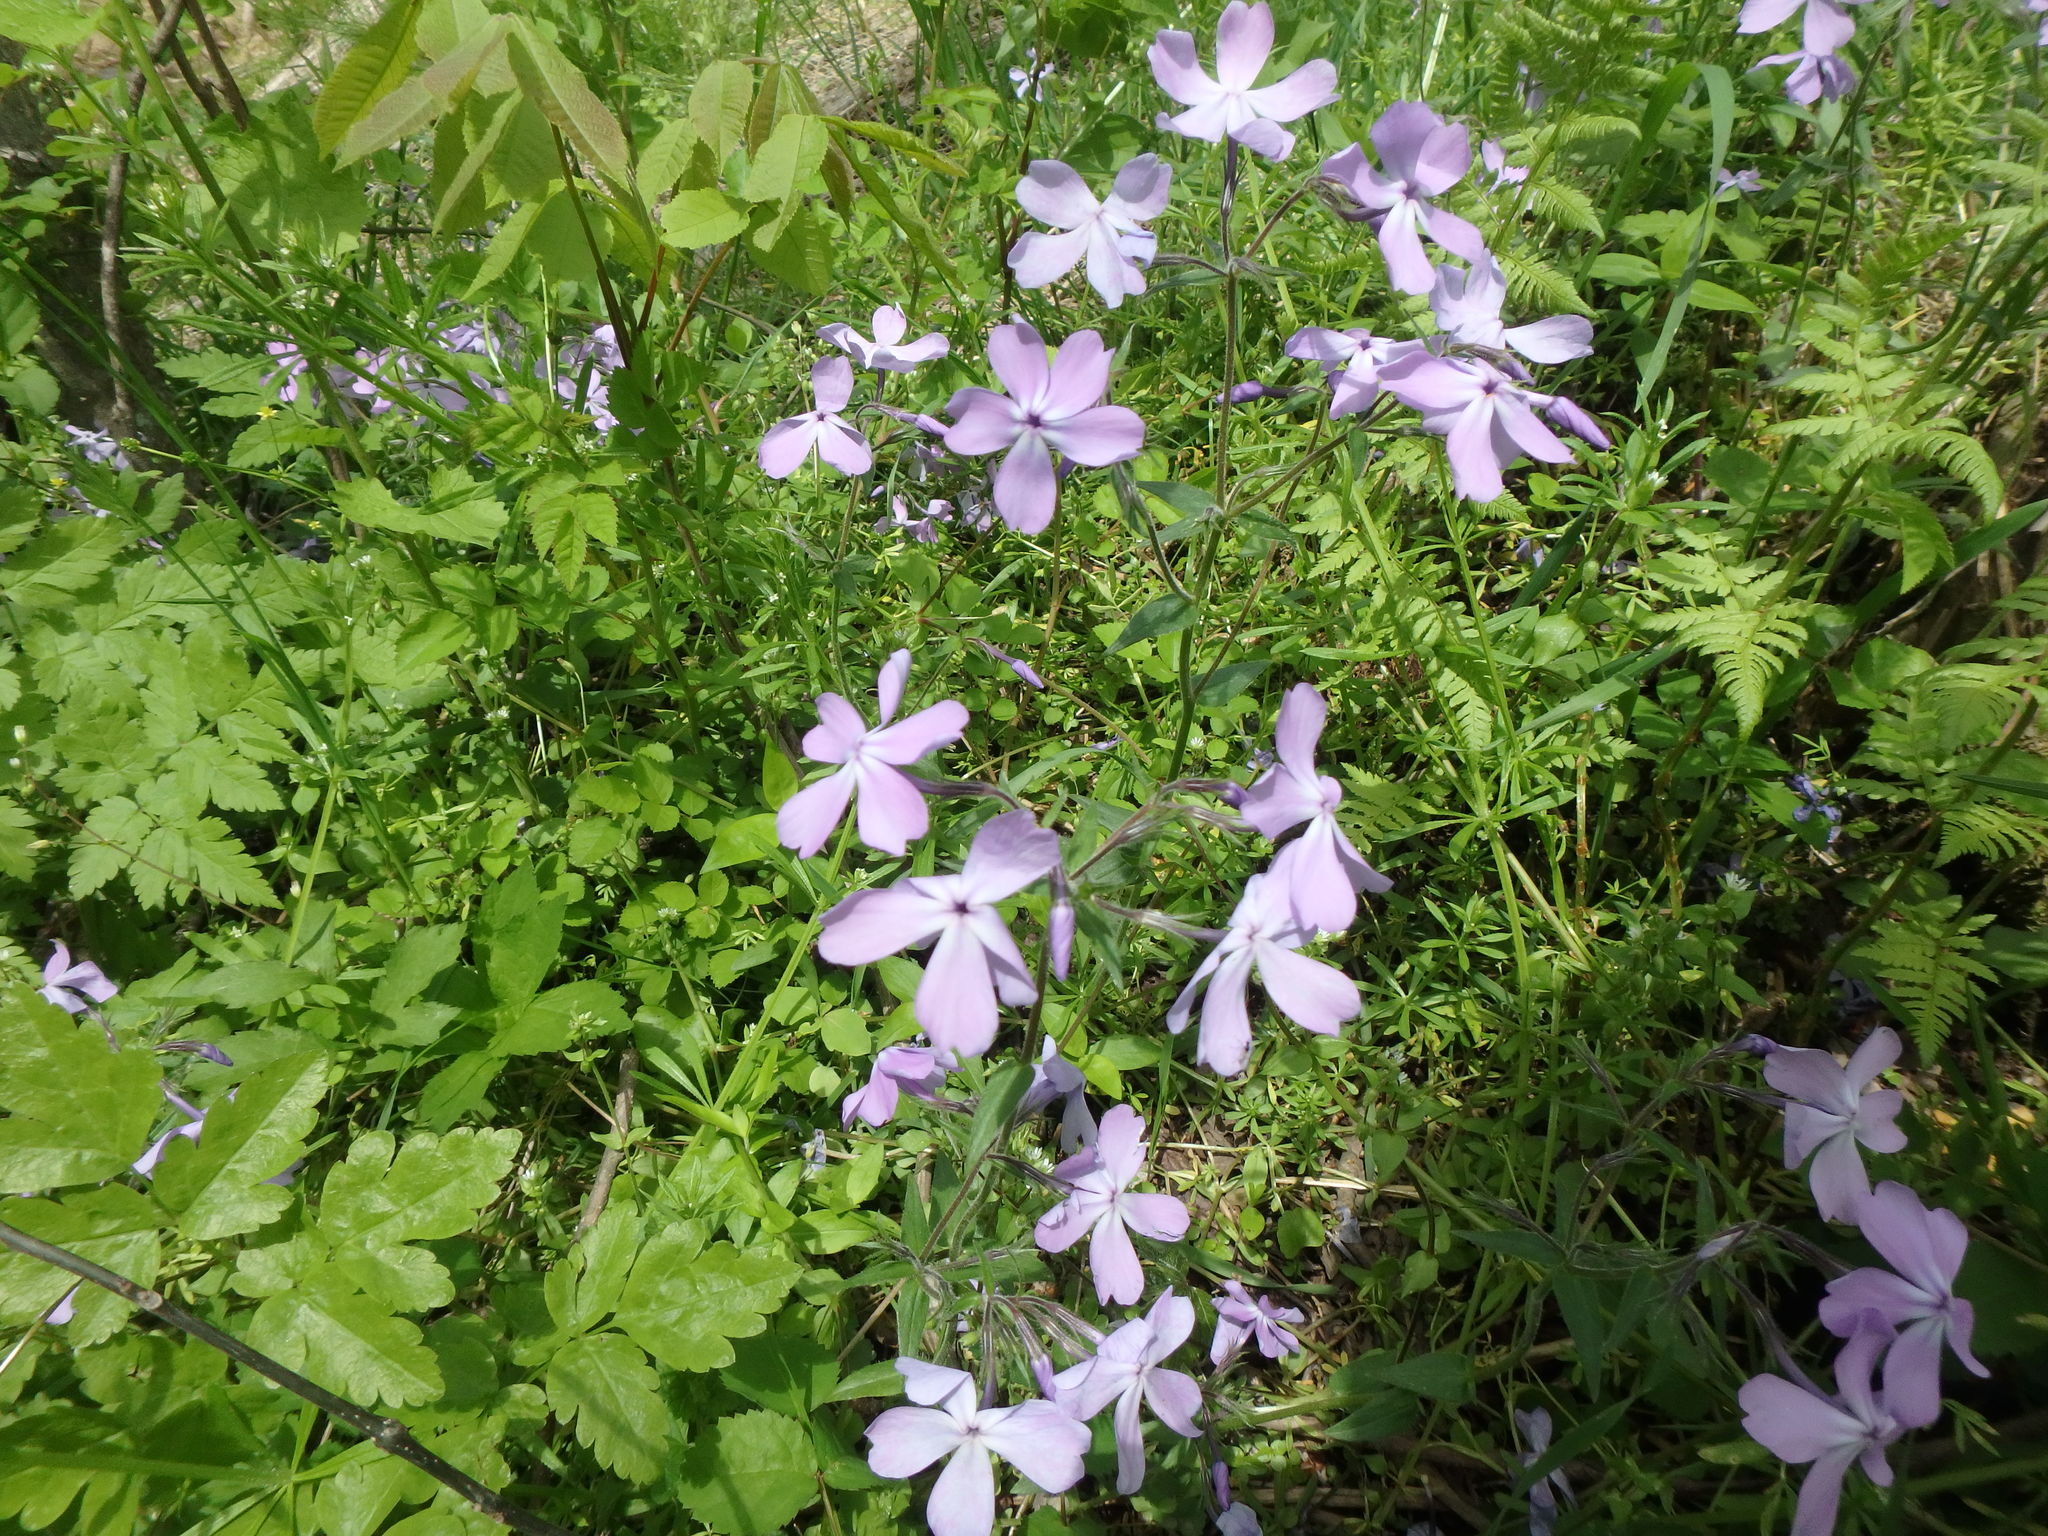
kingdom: Plantae
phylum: Tracheophyta
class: Magnoliopsida
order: Ericales
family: Polemoniaceae
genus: Phlox
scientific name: Phlox divaricata
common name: Blue phlox
